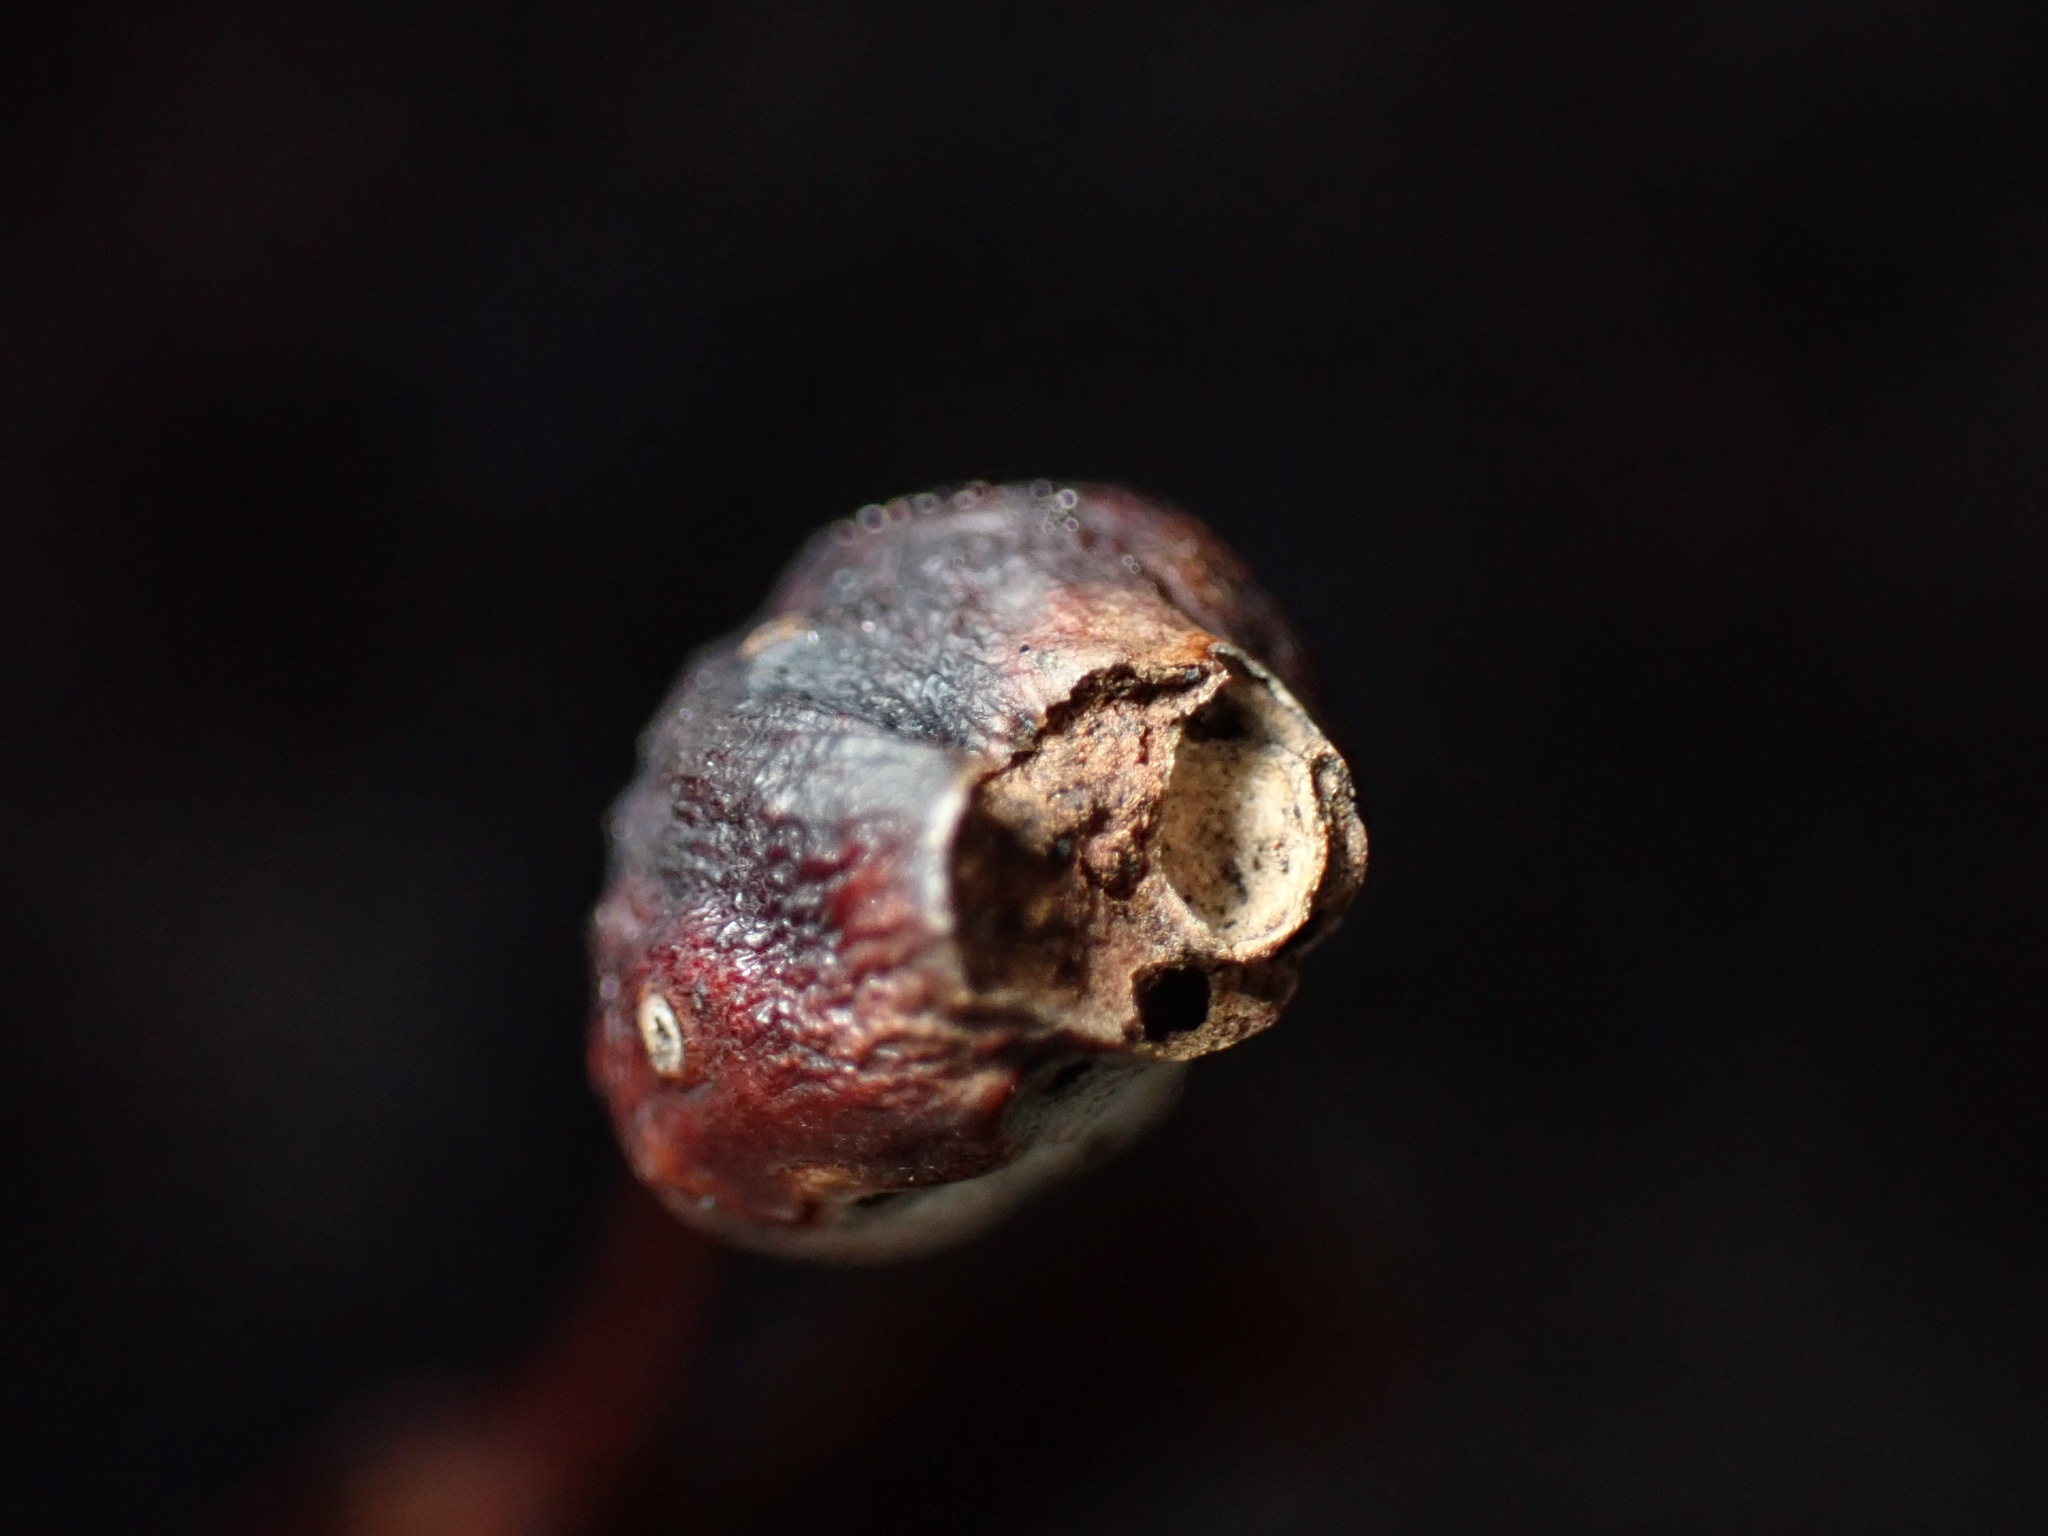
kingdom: Animalia
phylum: Arthropoda
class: Insecta
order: Hymenoptera
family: Cynipidae
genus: Melikaiella
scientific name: Melikaiella tumifica
